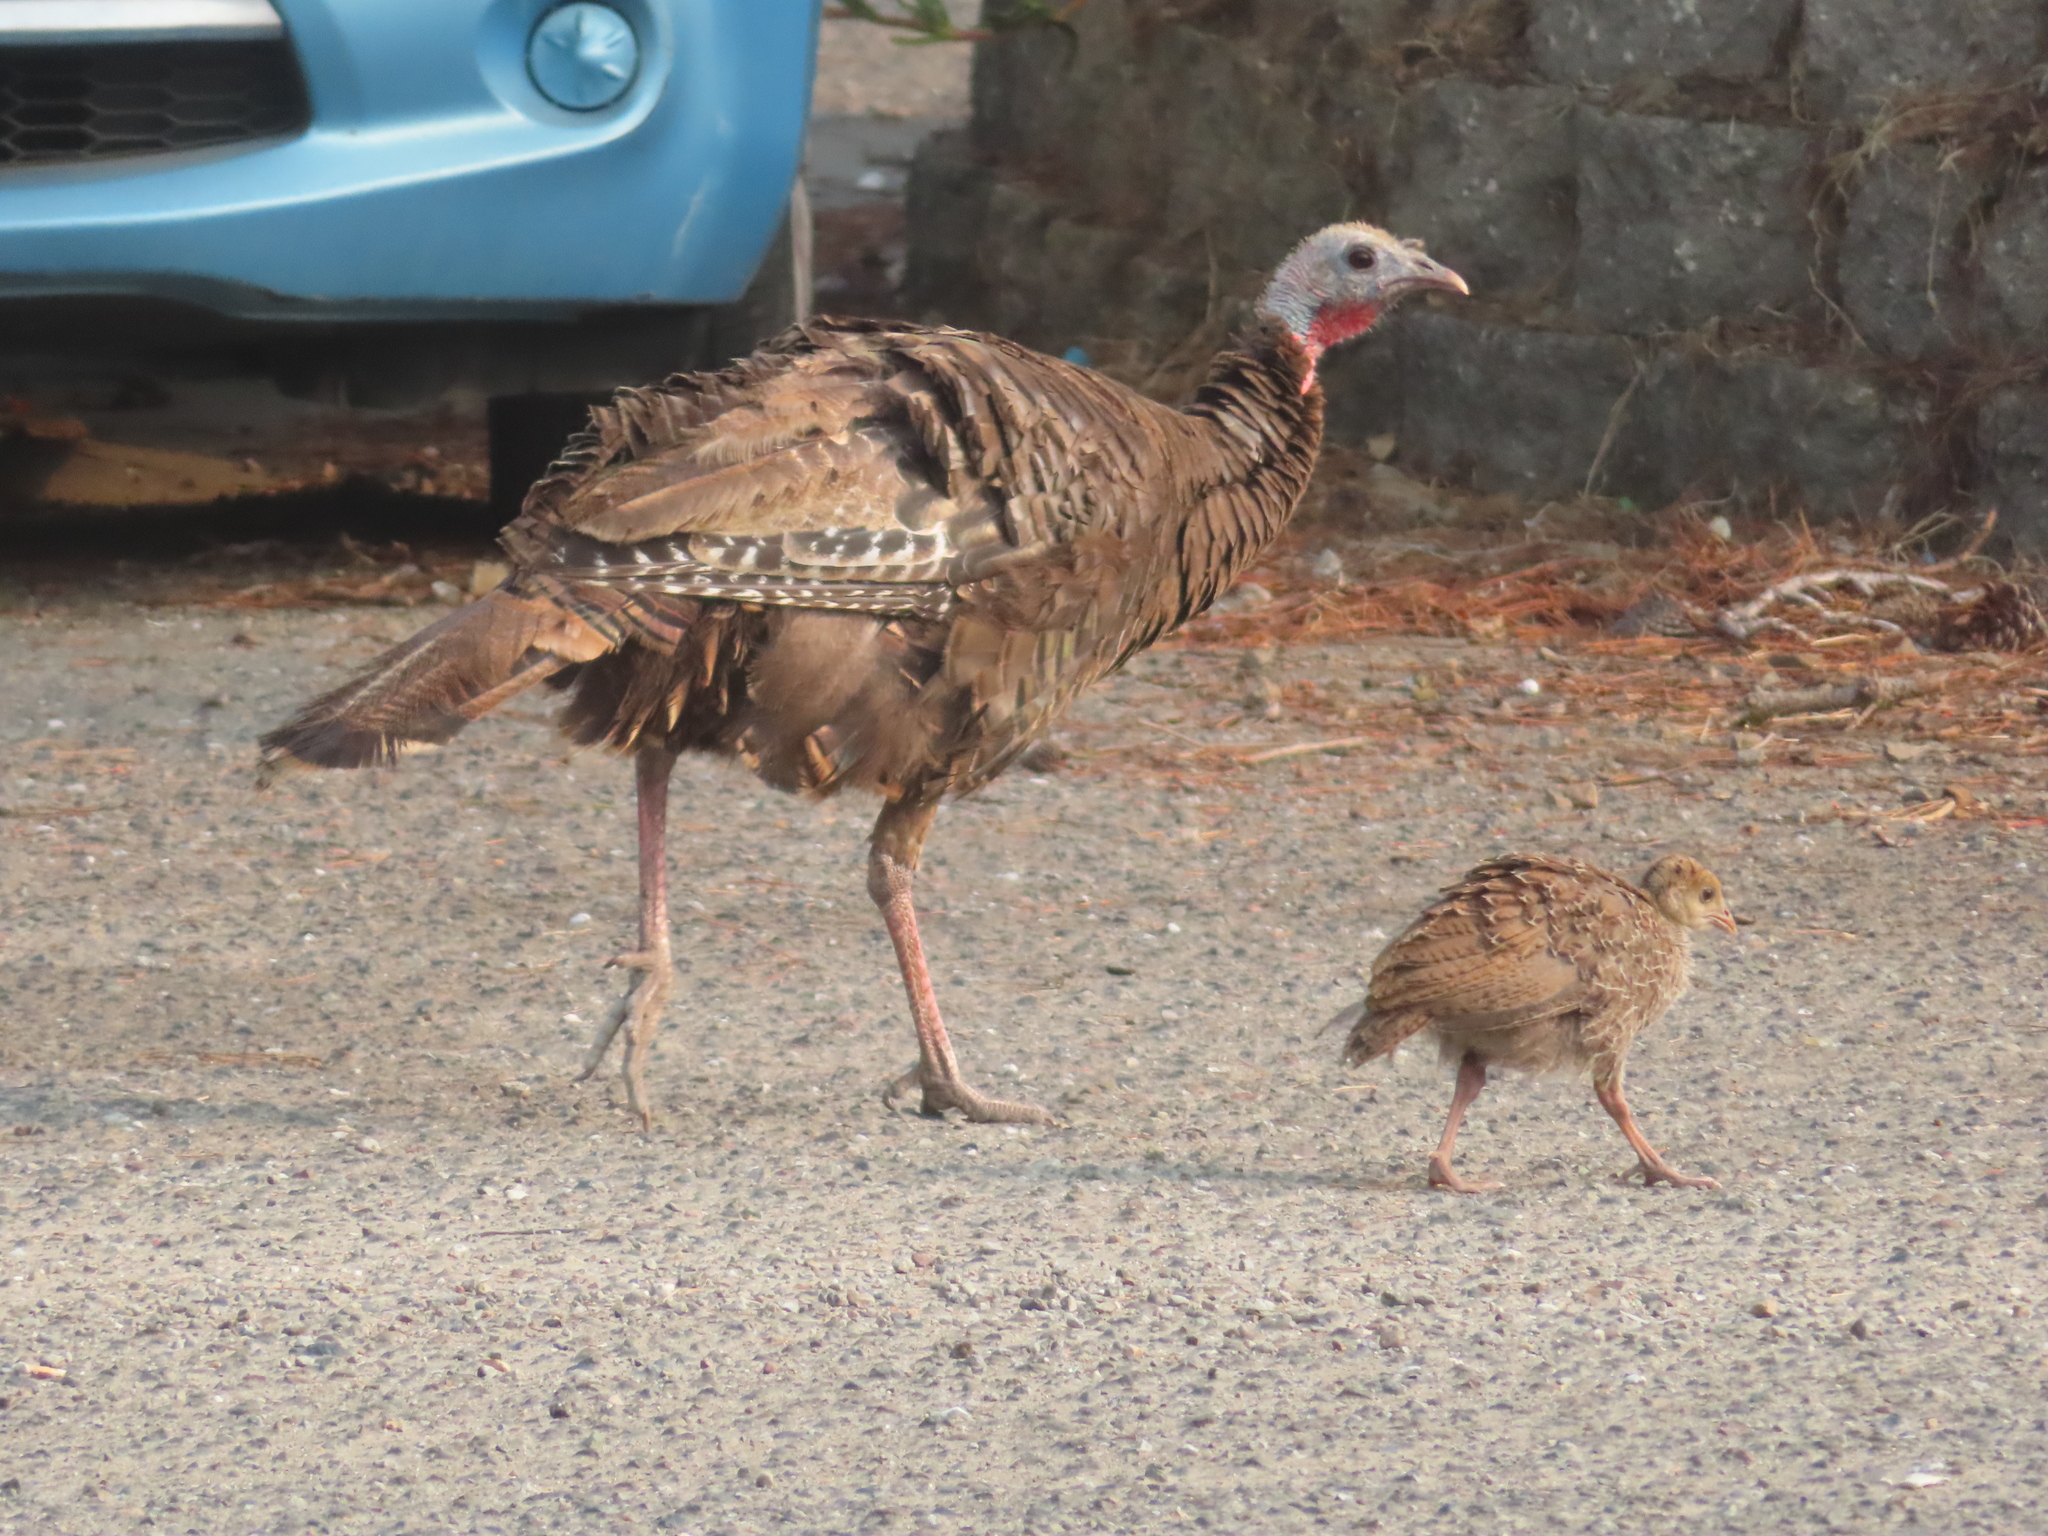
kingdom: Animalia
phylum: Chordata
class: Aves
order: Galliformes
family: Phasianidae
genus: Meleagris
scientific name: Meleagris gallopavo
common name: Wild turkey
